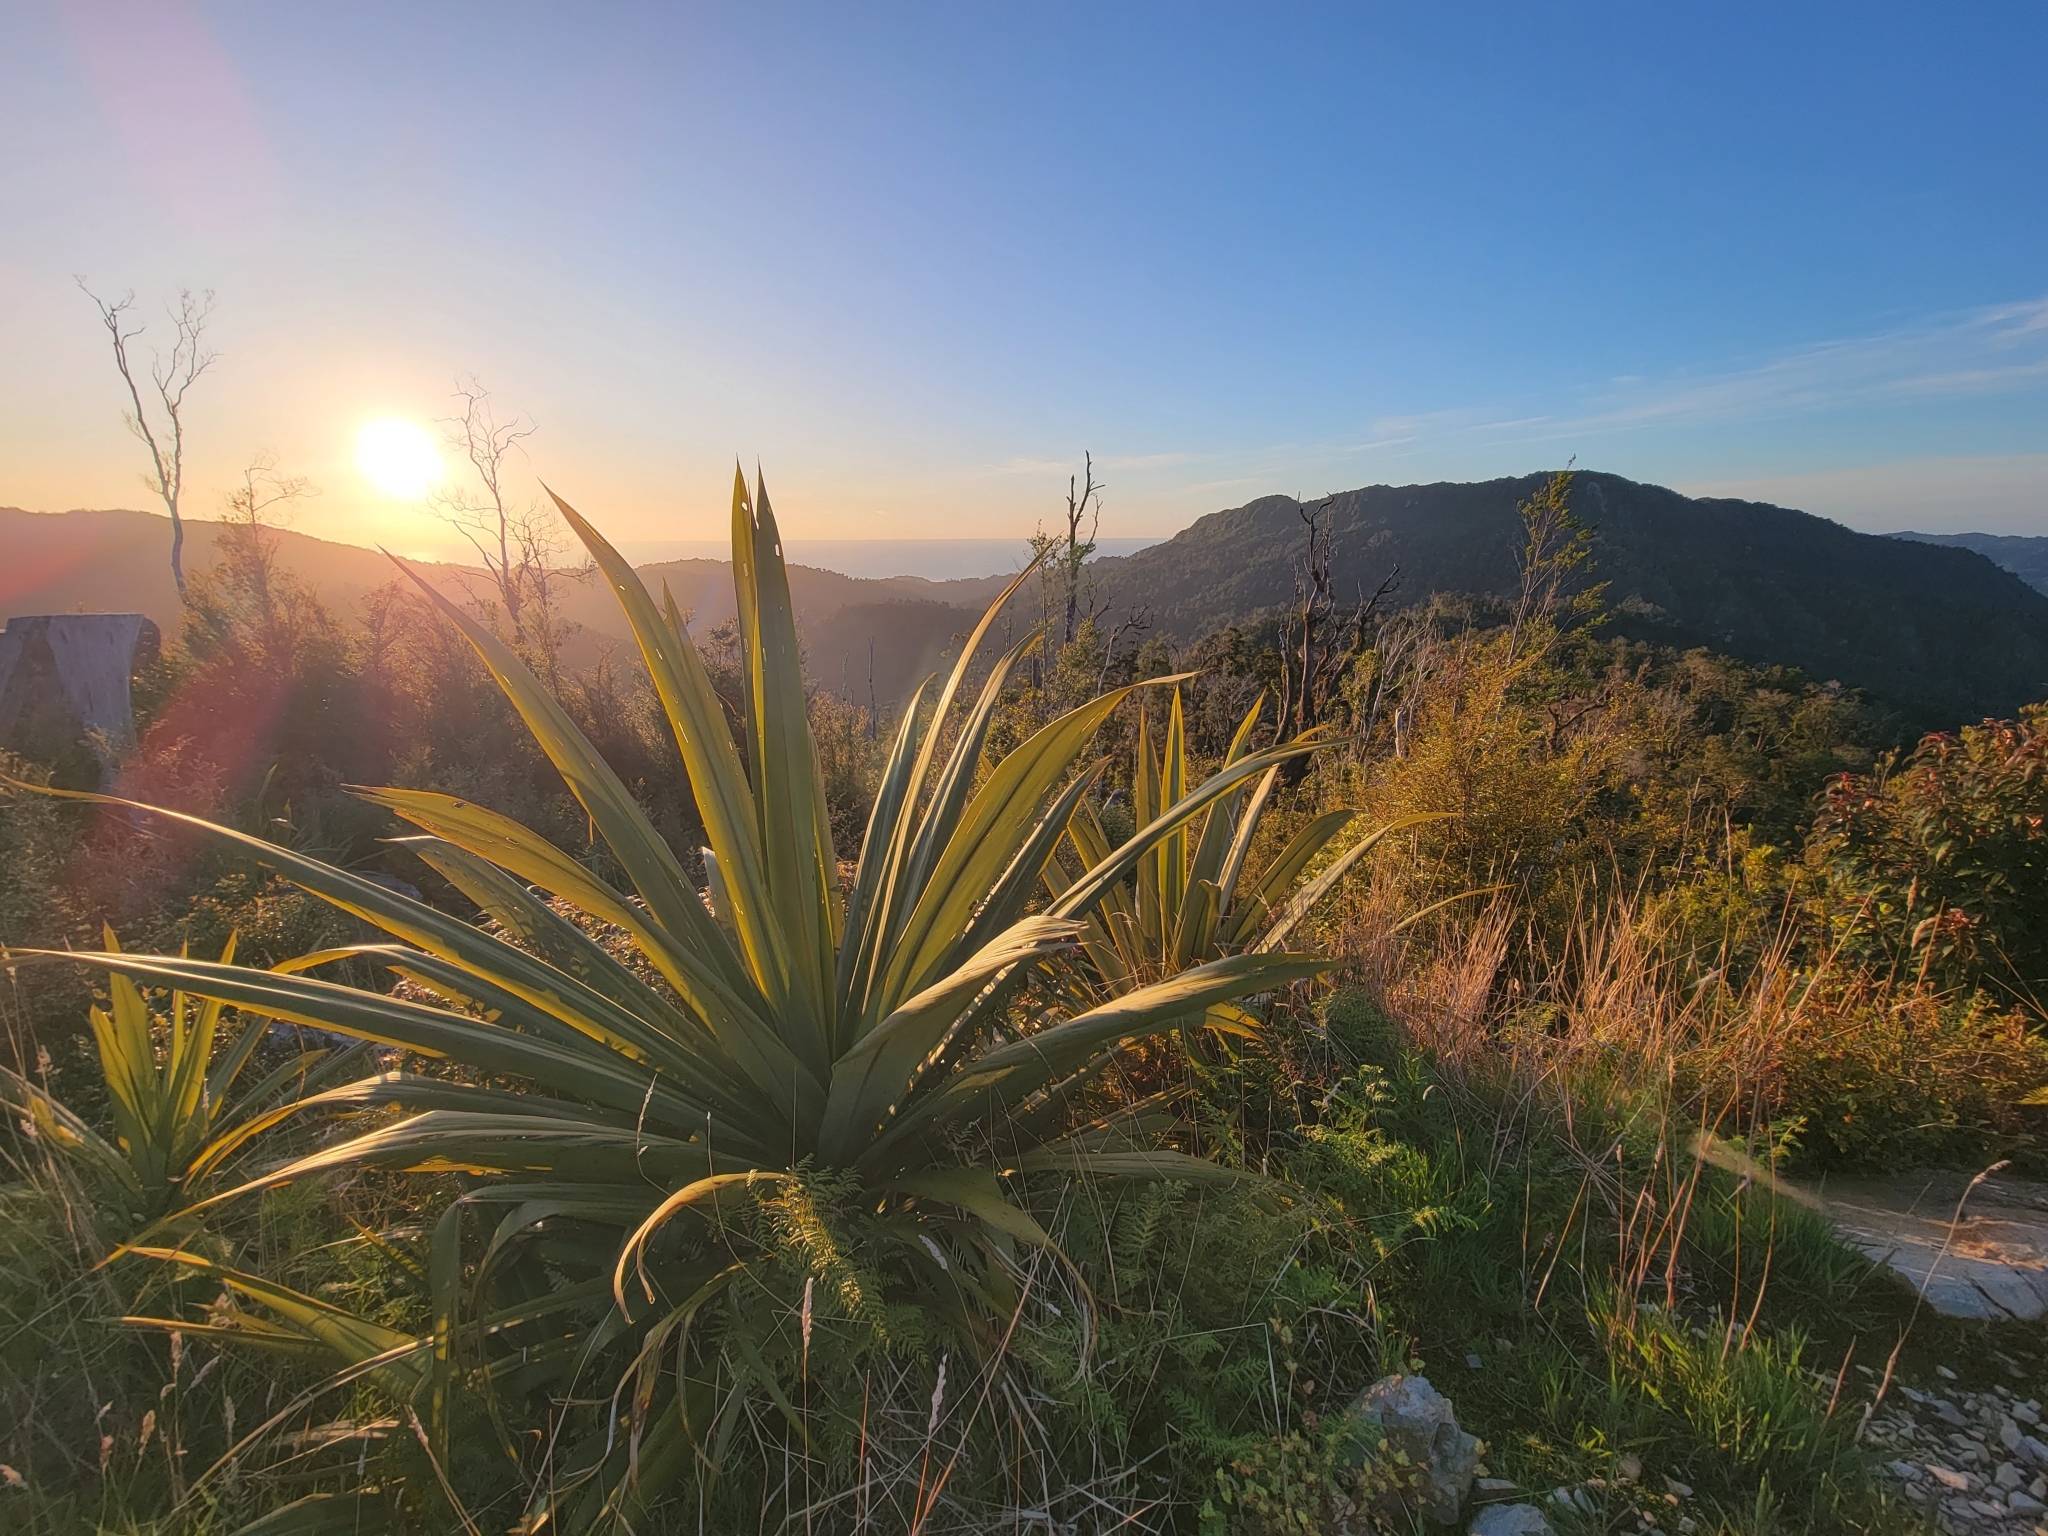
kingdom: Plantae
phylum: Tracheophyta
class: Liliopsida
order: Asparagales
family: Asparagaceae
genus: Cordyline
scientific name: Cordyline indivisa
